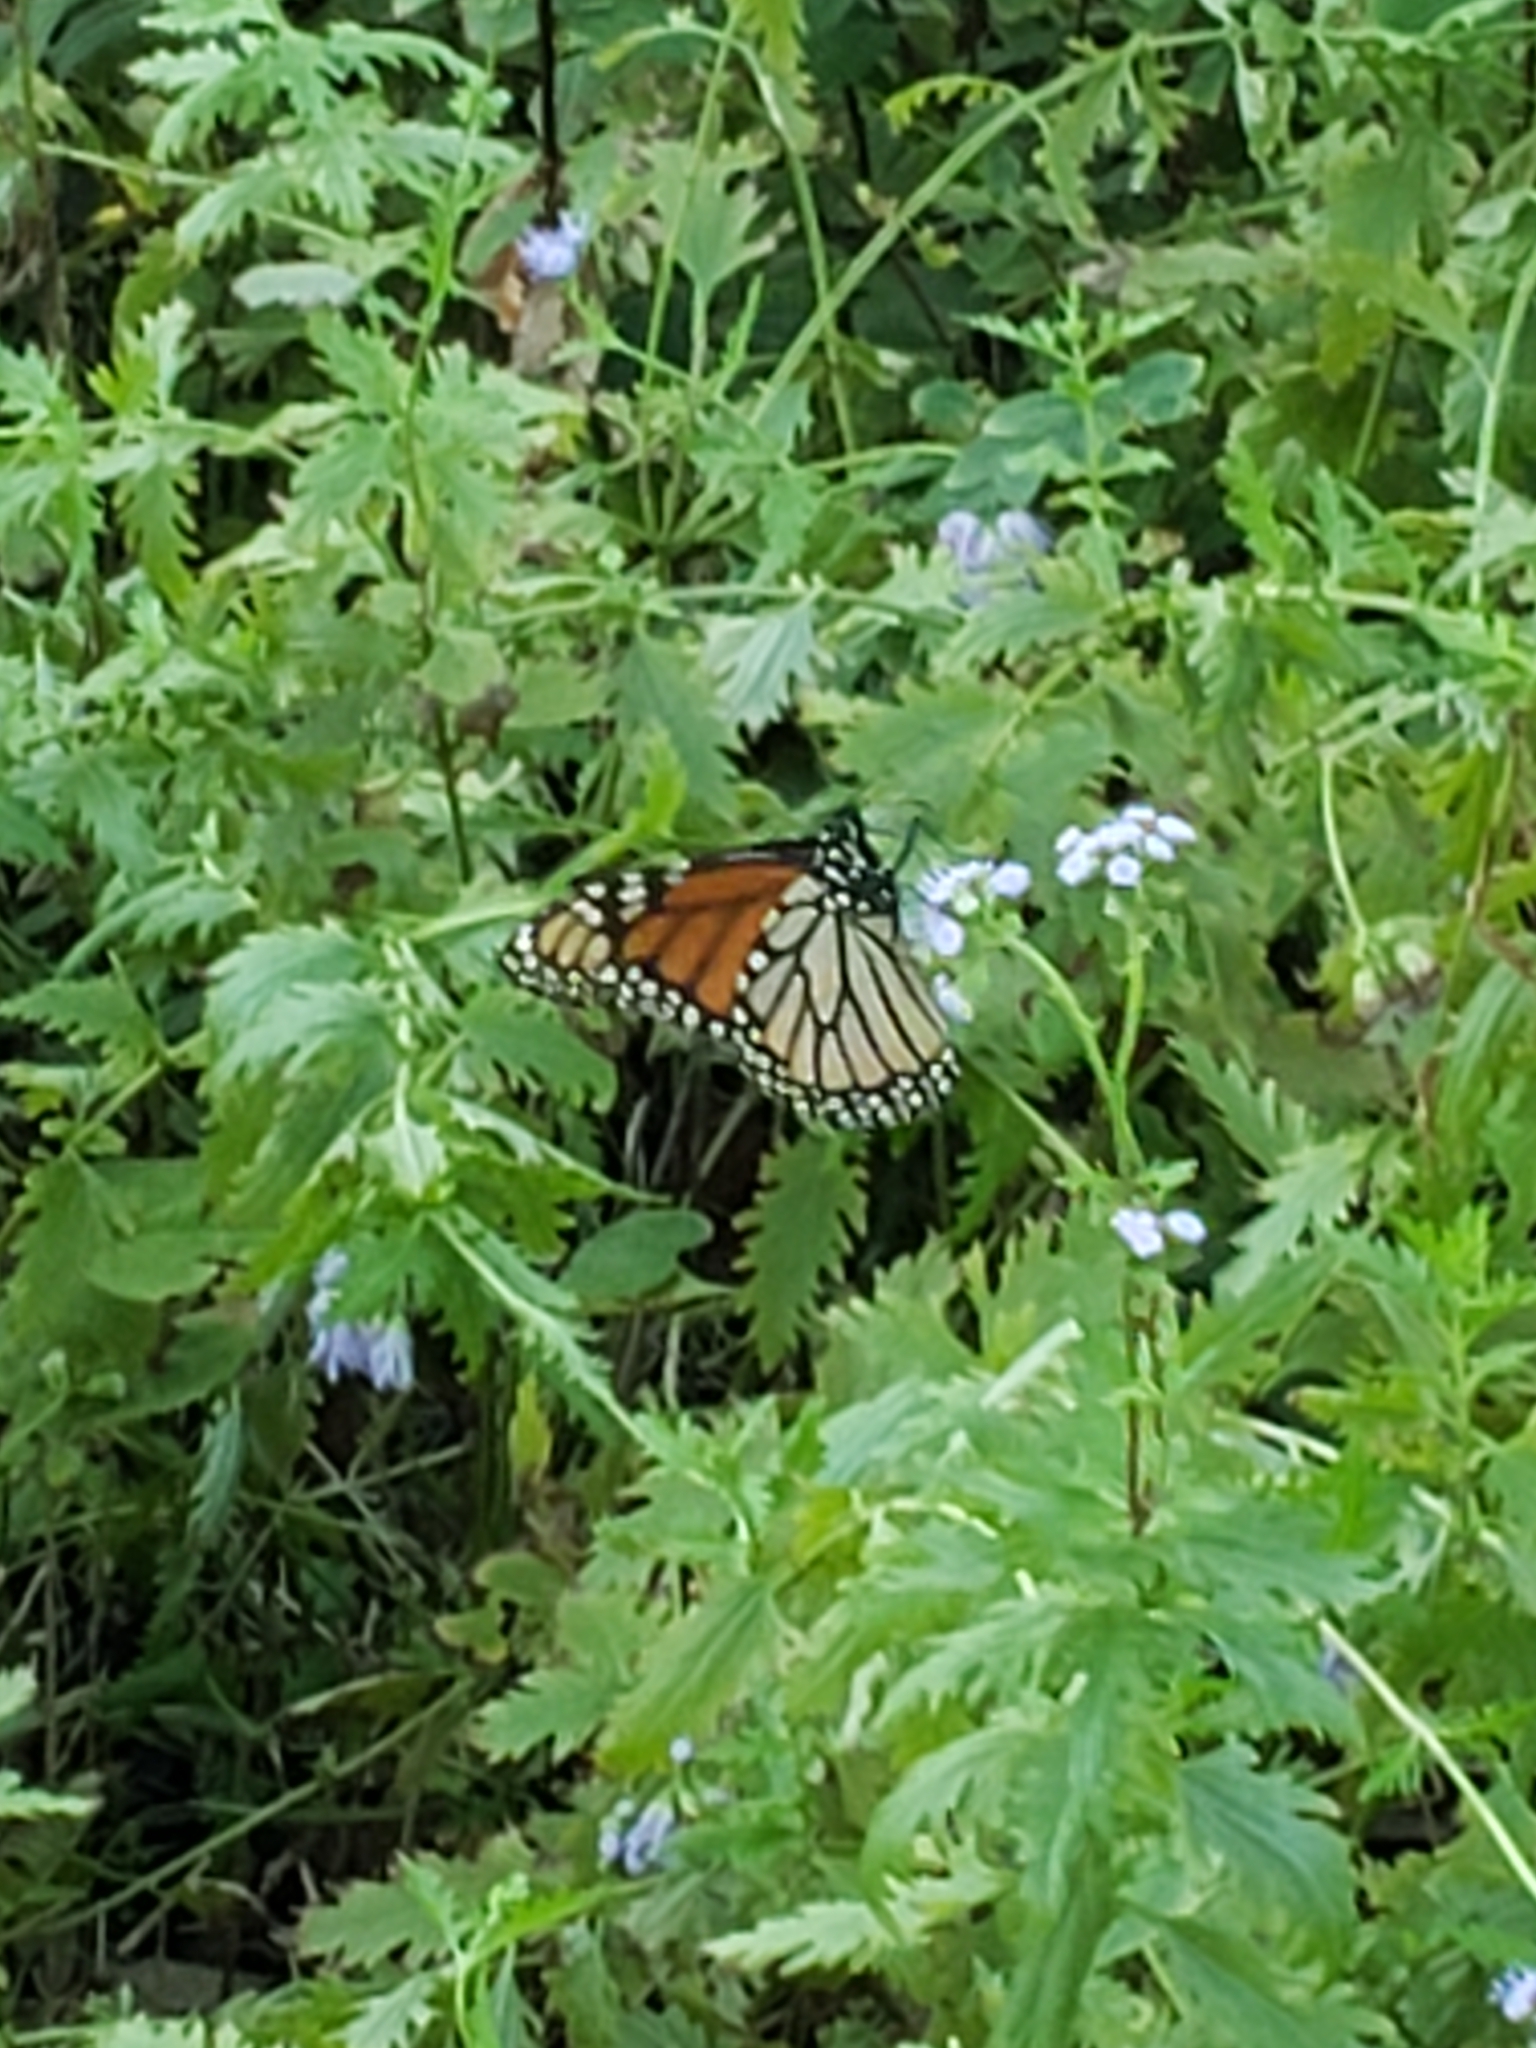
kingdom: Animalia
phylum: Arthropoda
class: Insecta
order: Lepidoptera
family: Nymphalidae
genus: Danaus
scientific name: Danaus plexippus
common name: Monarch
